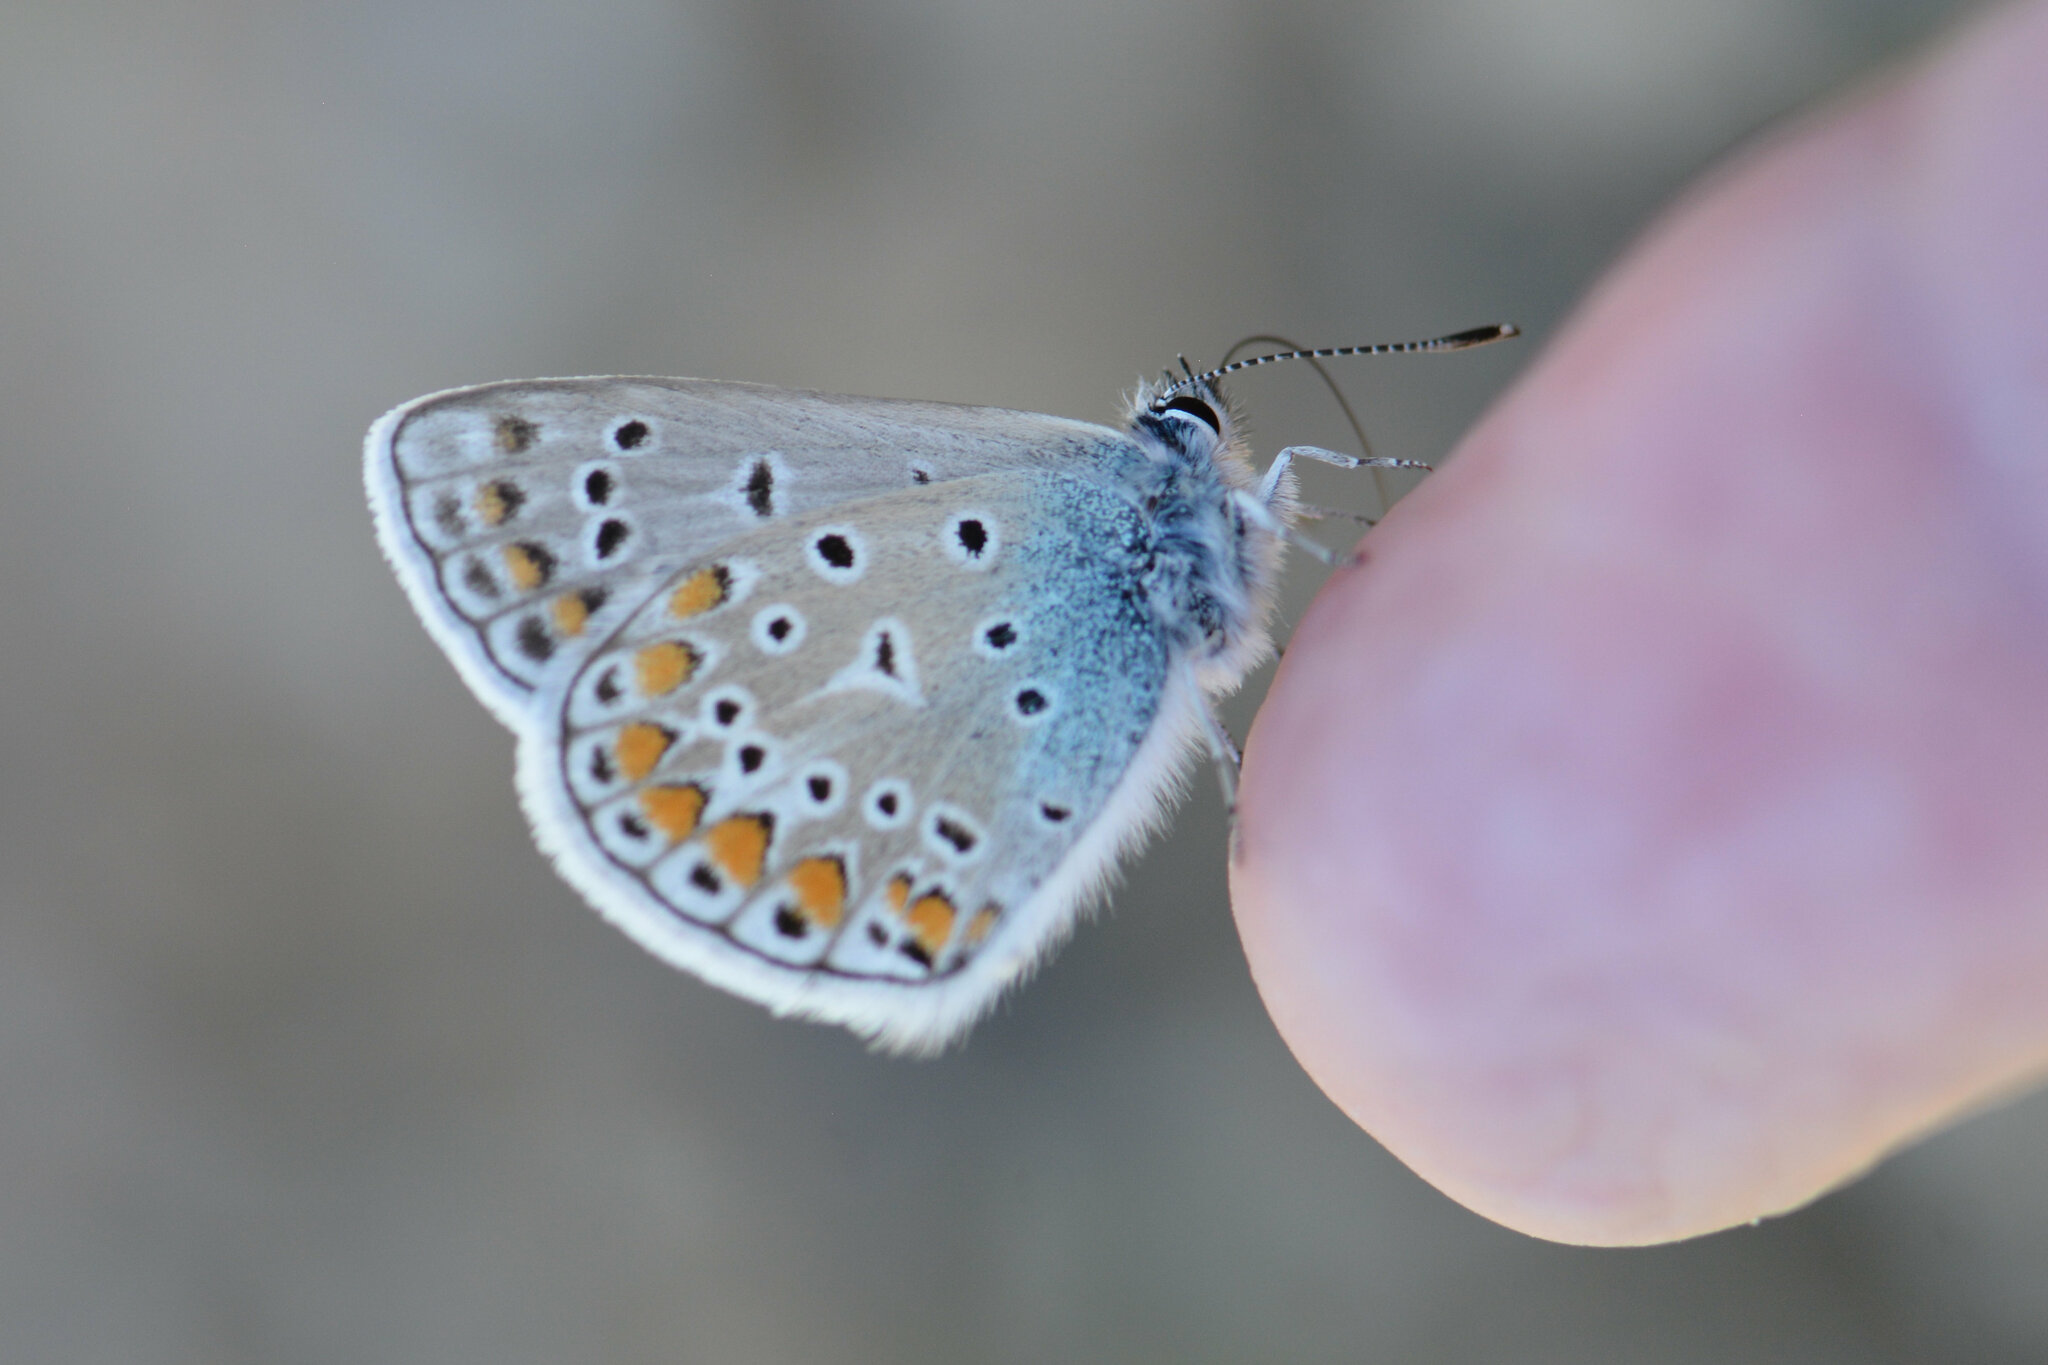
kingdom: Animalia
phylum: Arthropoda
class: Insecta
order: Lepidoptera
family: Lycaenidae
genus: Polyommatus
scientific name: Polyommatus icarus
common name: Common blue
